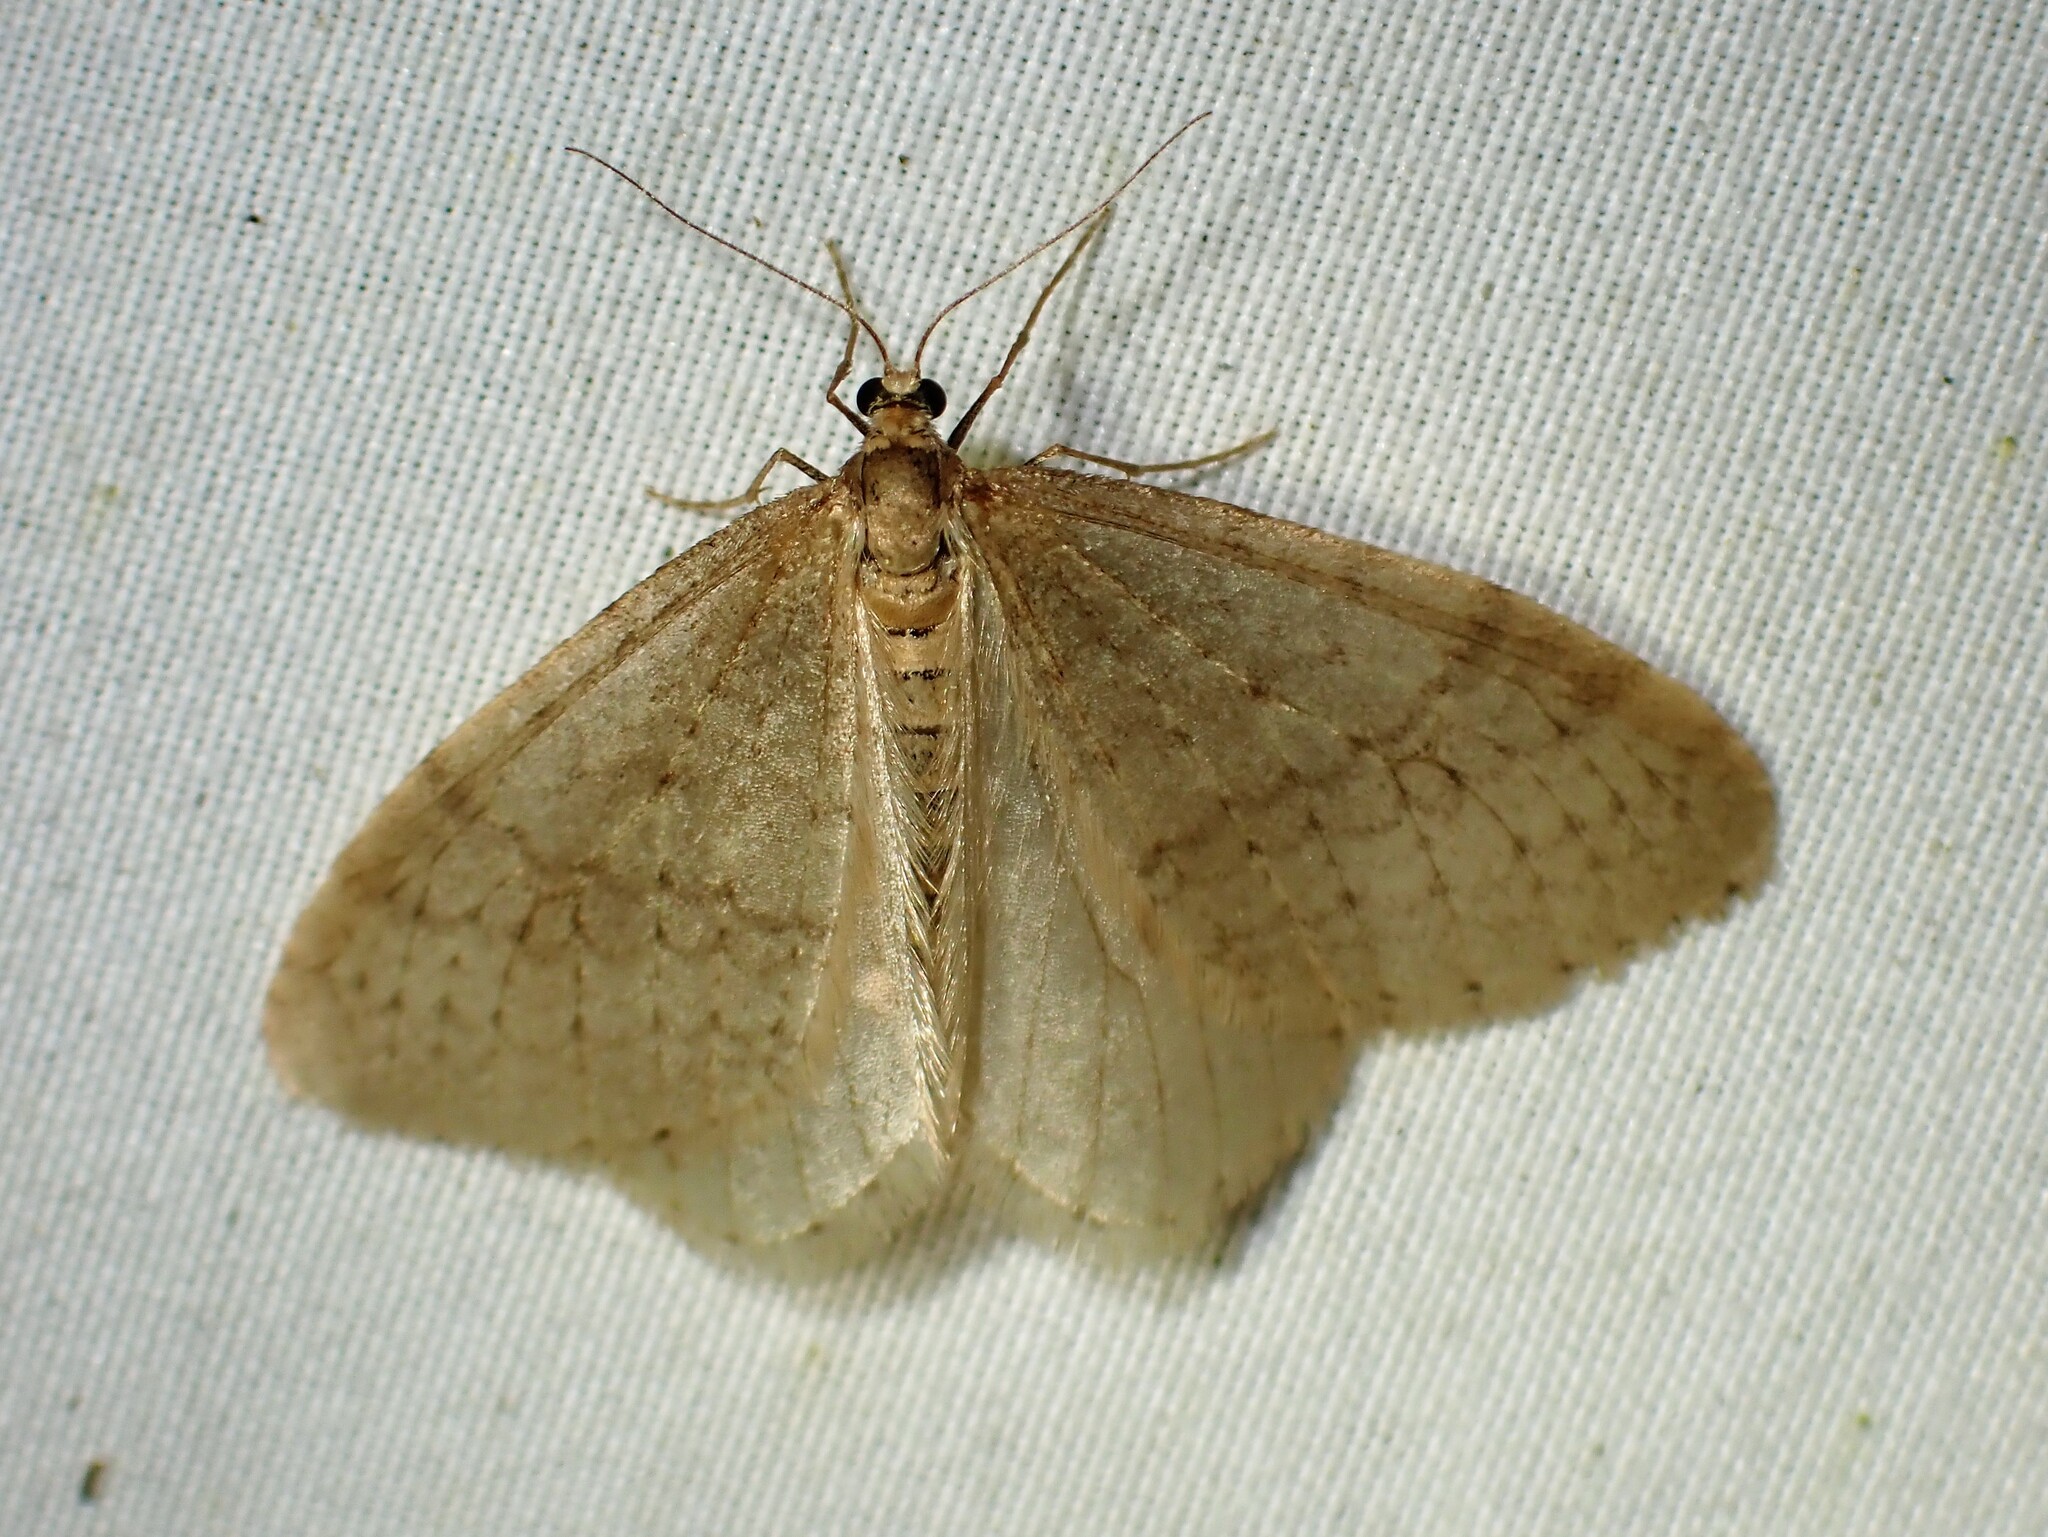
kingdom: Animalia
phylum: Arthropoda
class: Insecta
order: Lepidoptera
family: Geometridae
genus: Operophtera
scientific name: Operophtera bruceata
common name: Bruce spanworm
